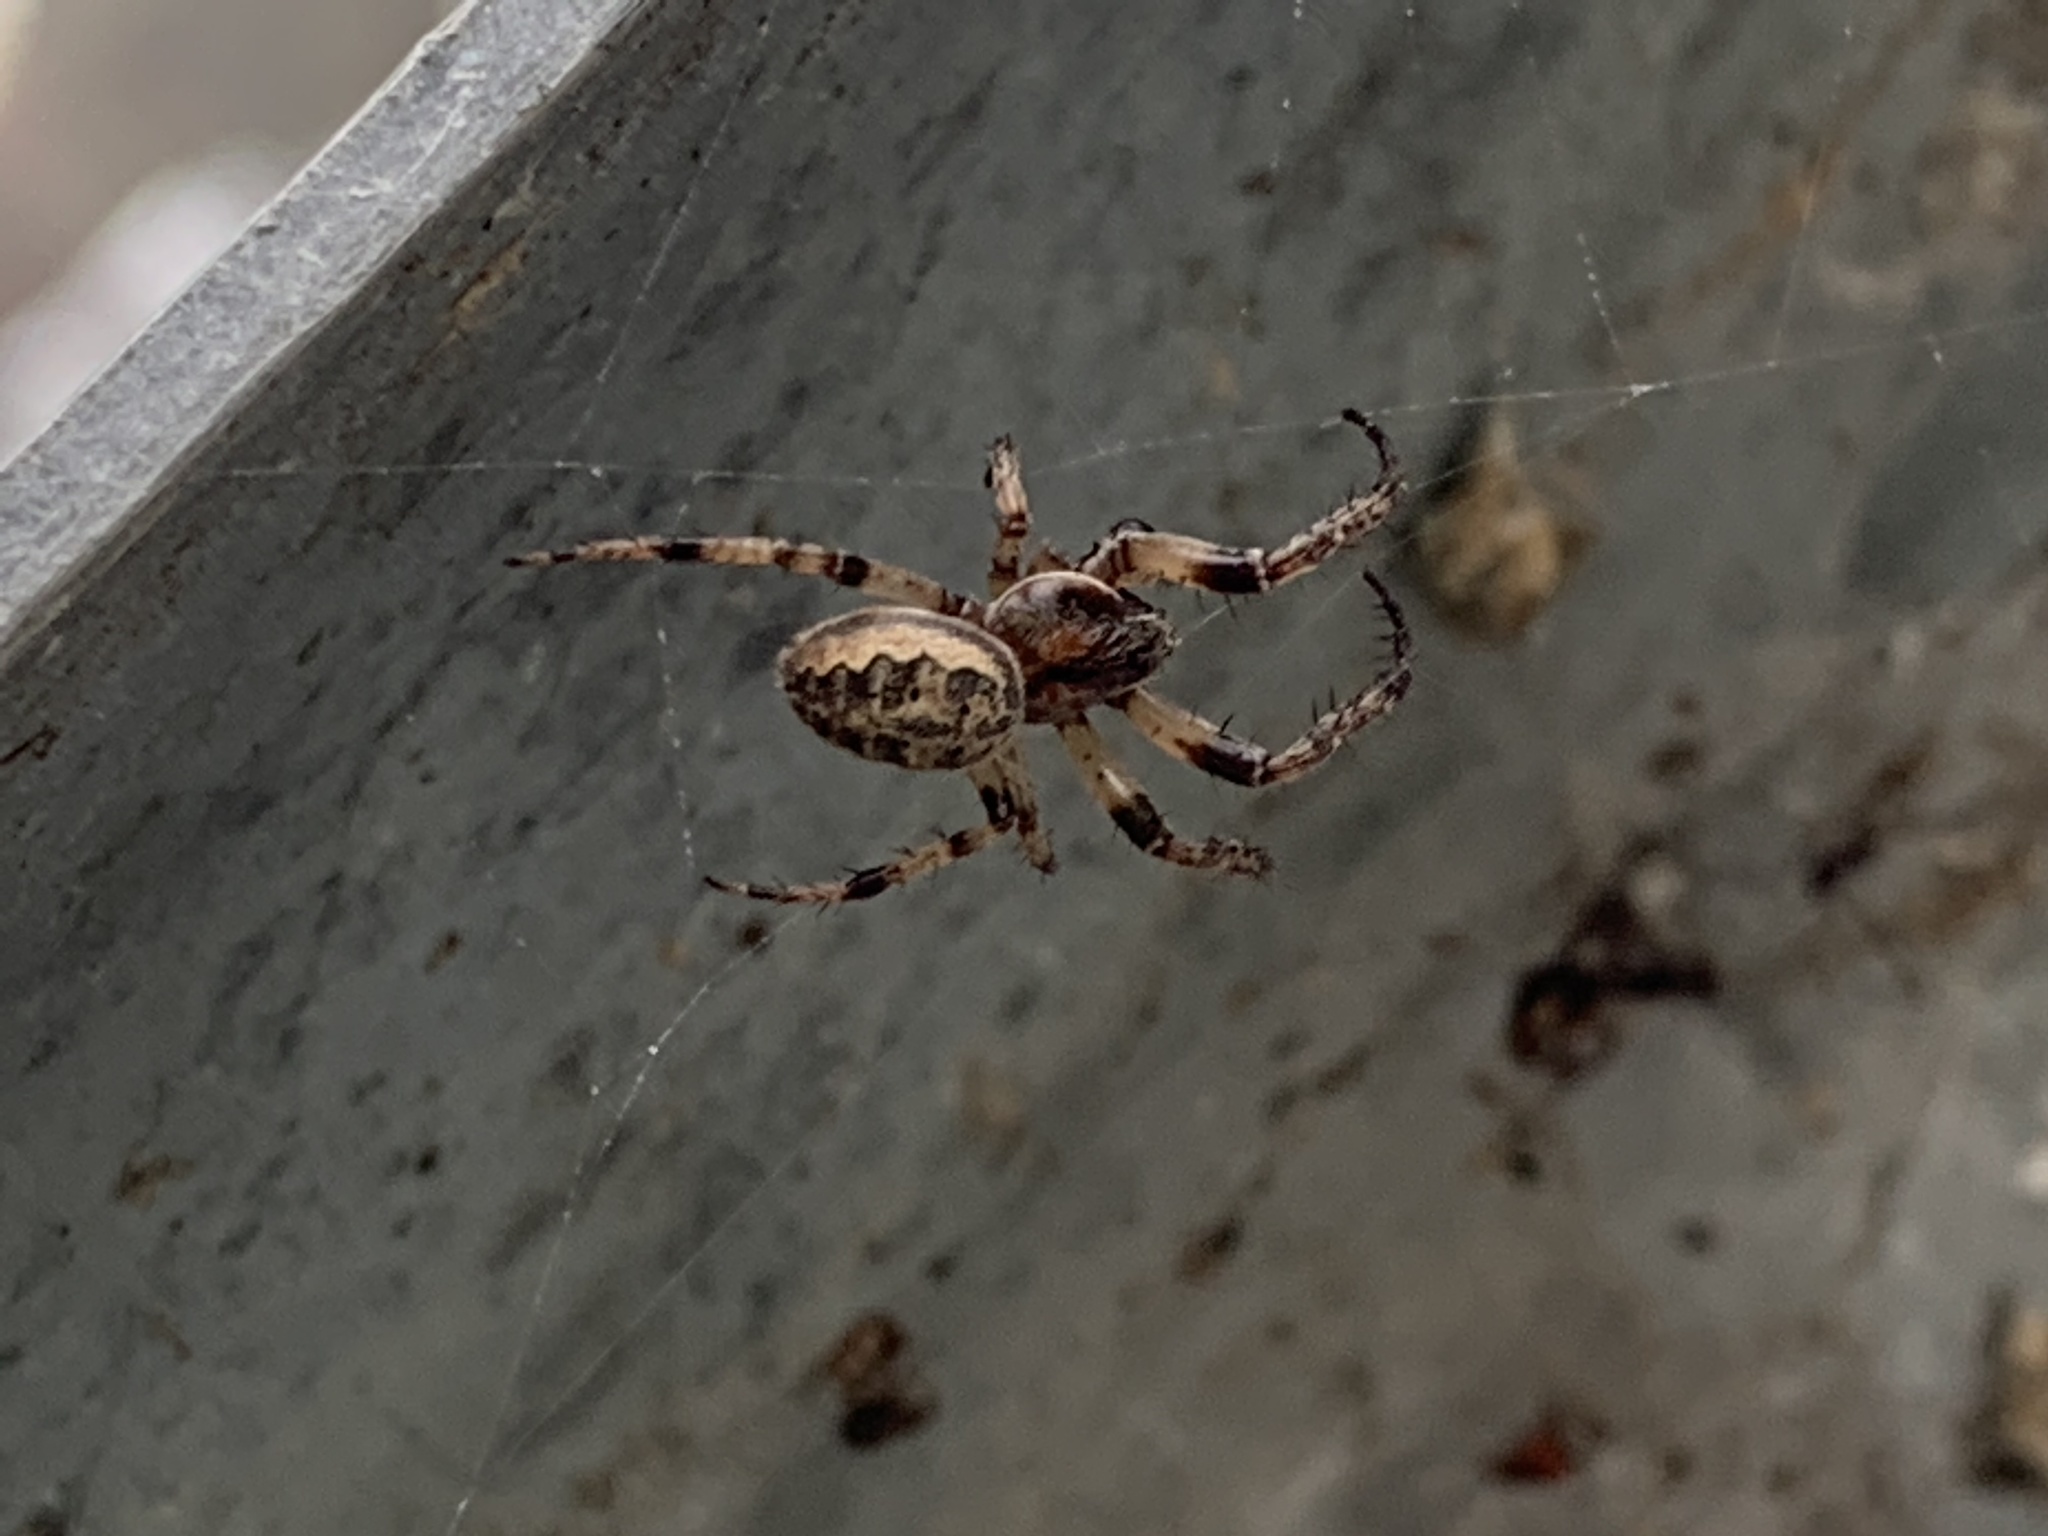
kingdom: Animalia
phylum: Arthropoda
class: Arachnida
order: Araneae
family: Araneidae
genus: Larinioides
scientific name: Larinioides cornutus
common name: Furrow orbweaver
